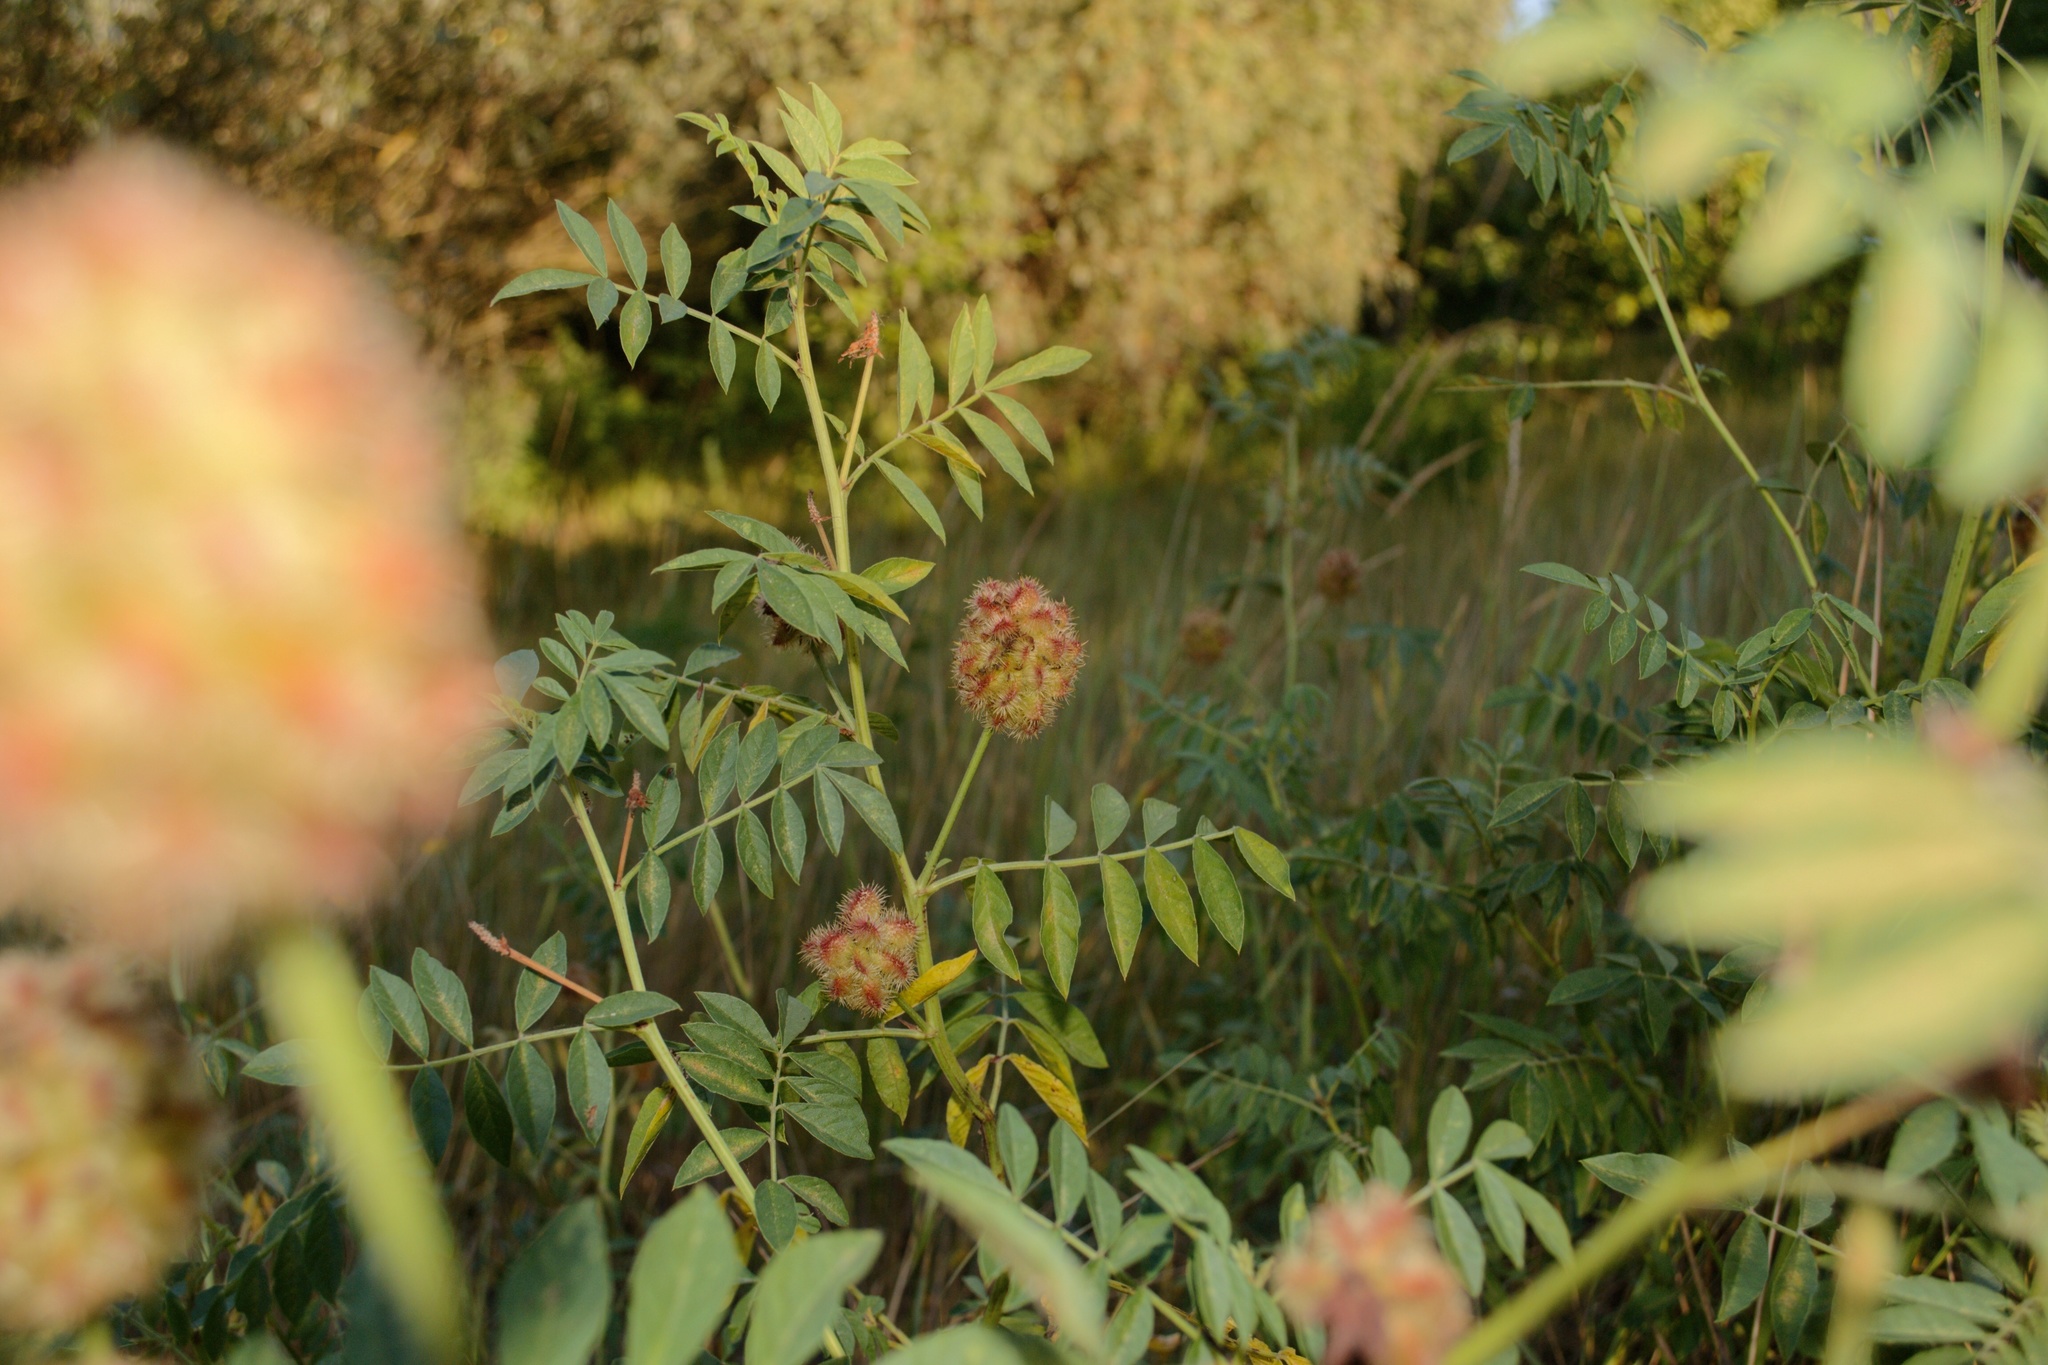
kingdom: Plantae
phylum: Tracheophyta
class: Magnoliopsida
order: Fabales
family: Fabaceae
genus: Glycyrrhiza
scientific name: Glycyrrhiza echinata
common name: German liquorice
